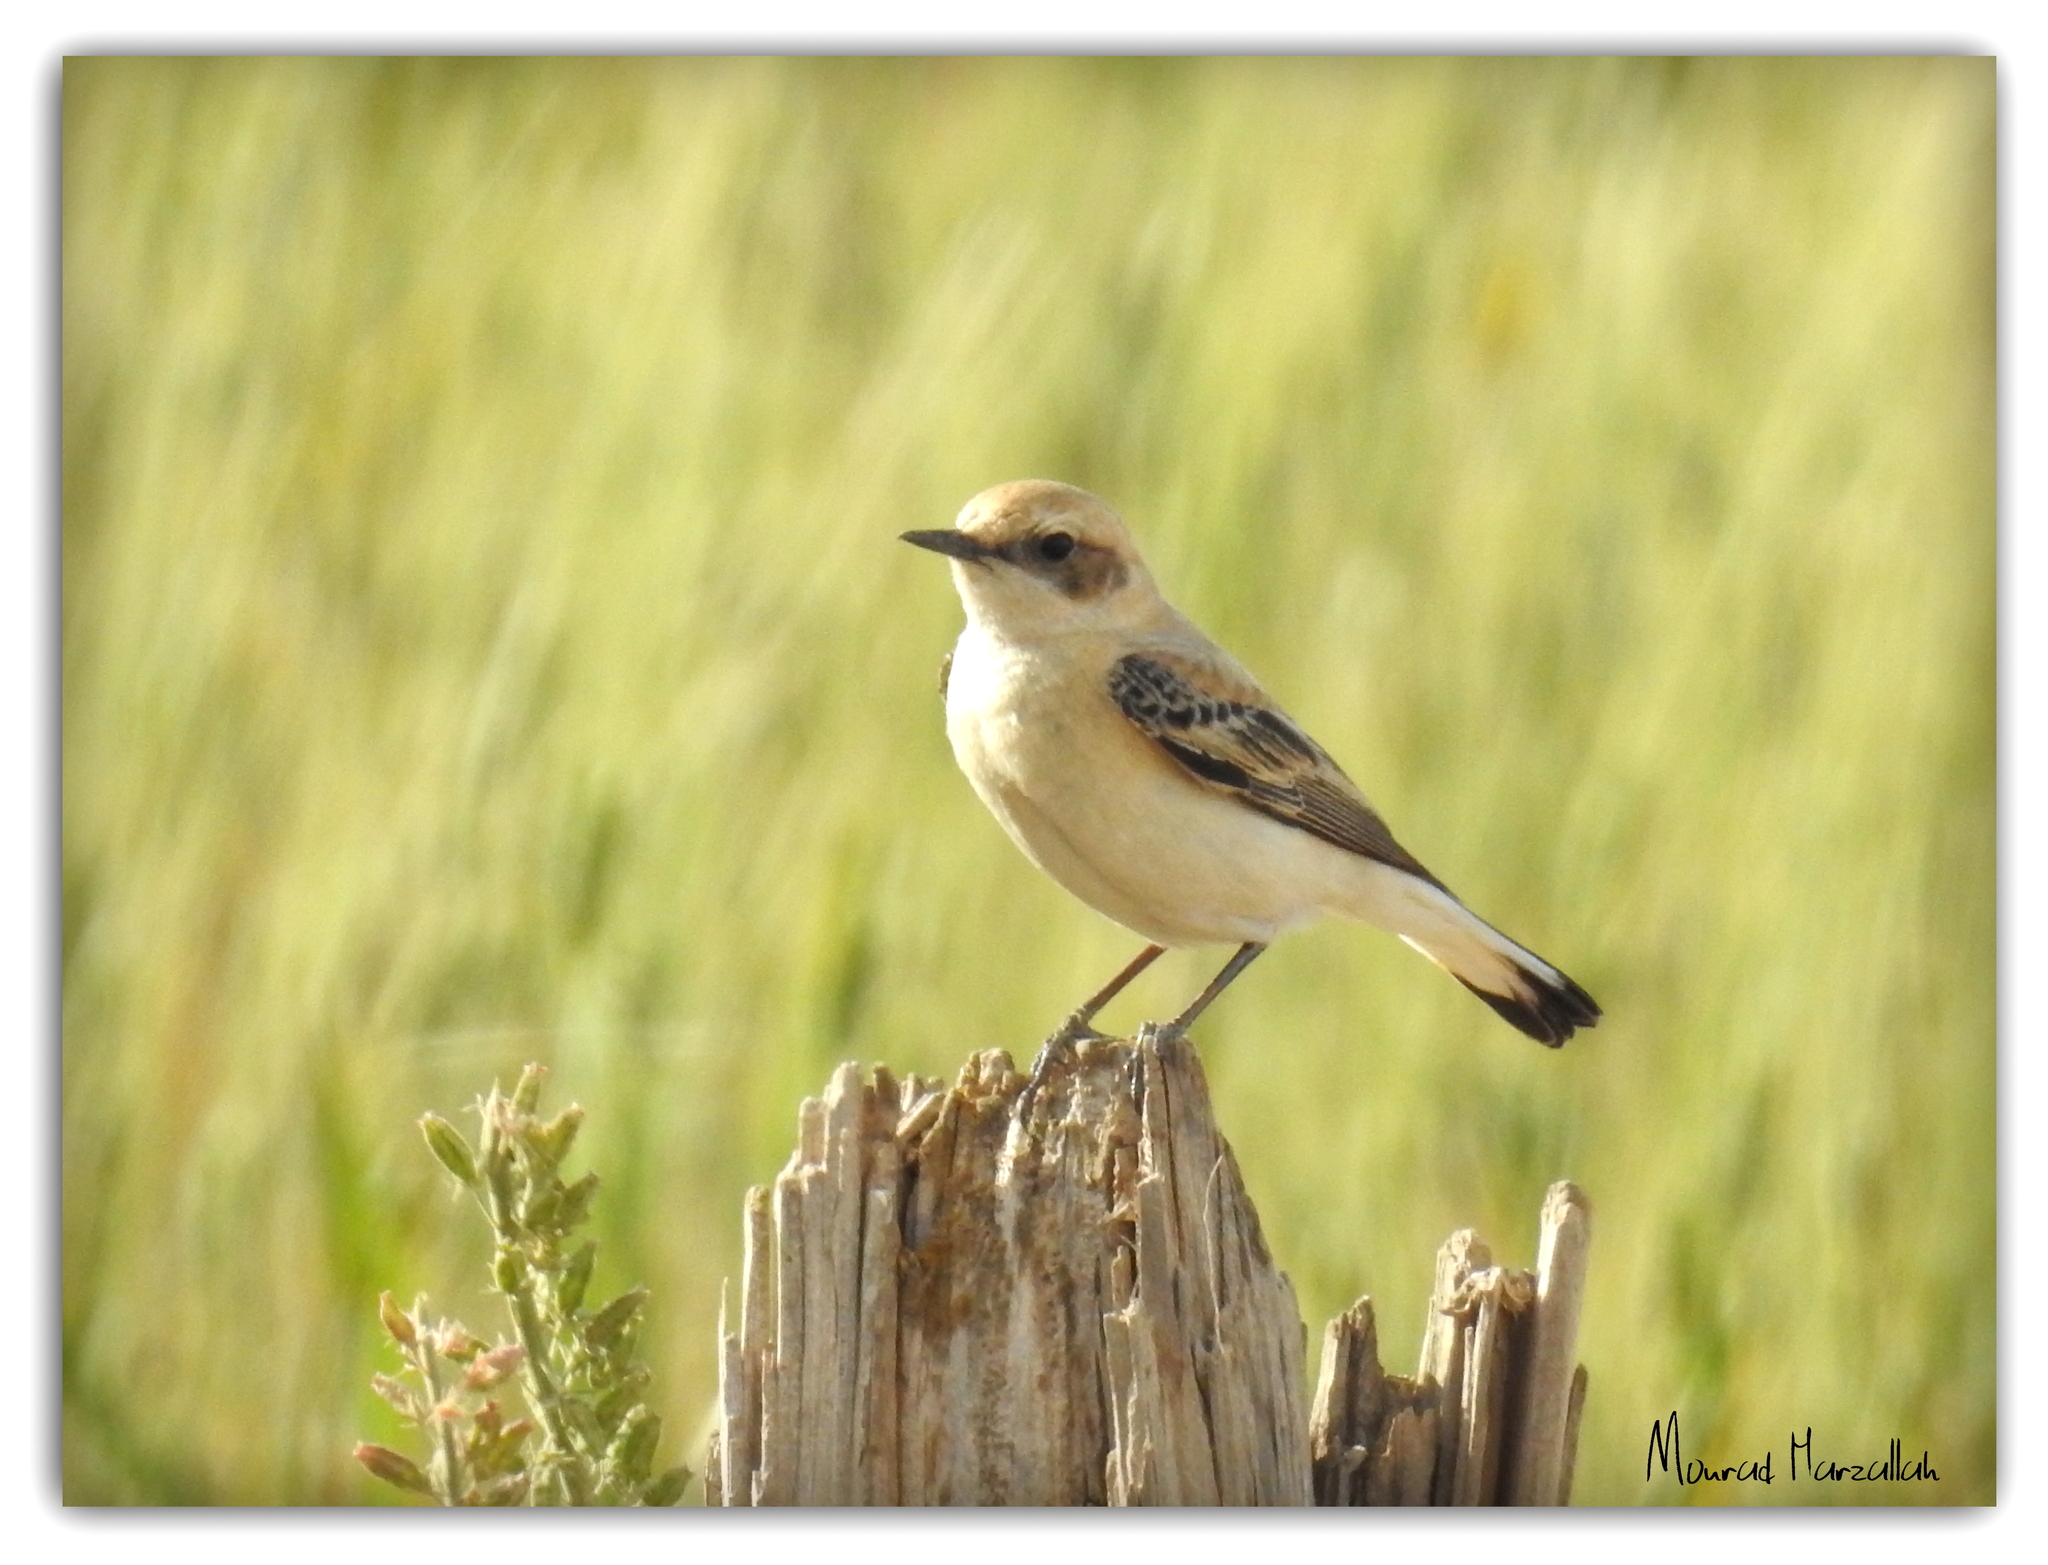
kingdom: Animalia
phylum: Chordata
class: Aves
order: Passeriformes
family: Muscicapidae
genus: Oenanthe
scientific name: Oenanthe hispanica
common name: Black-eared wheatear
